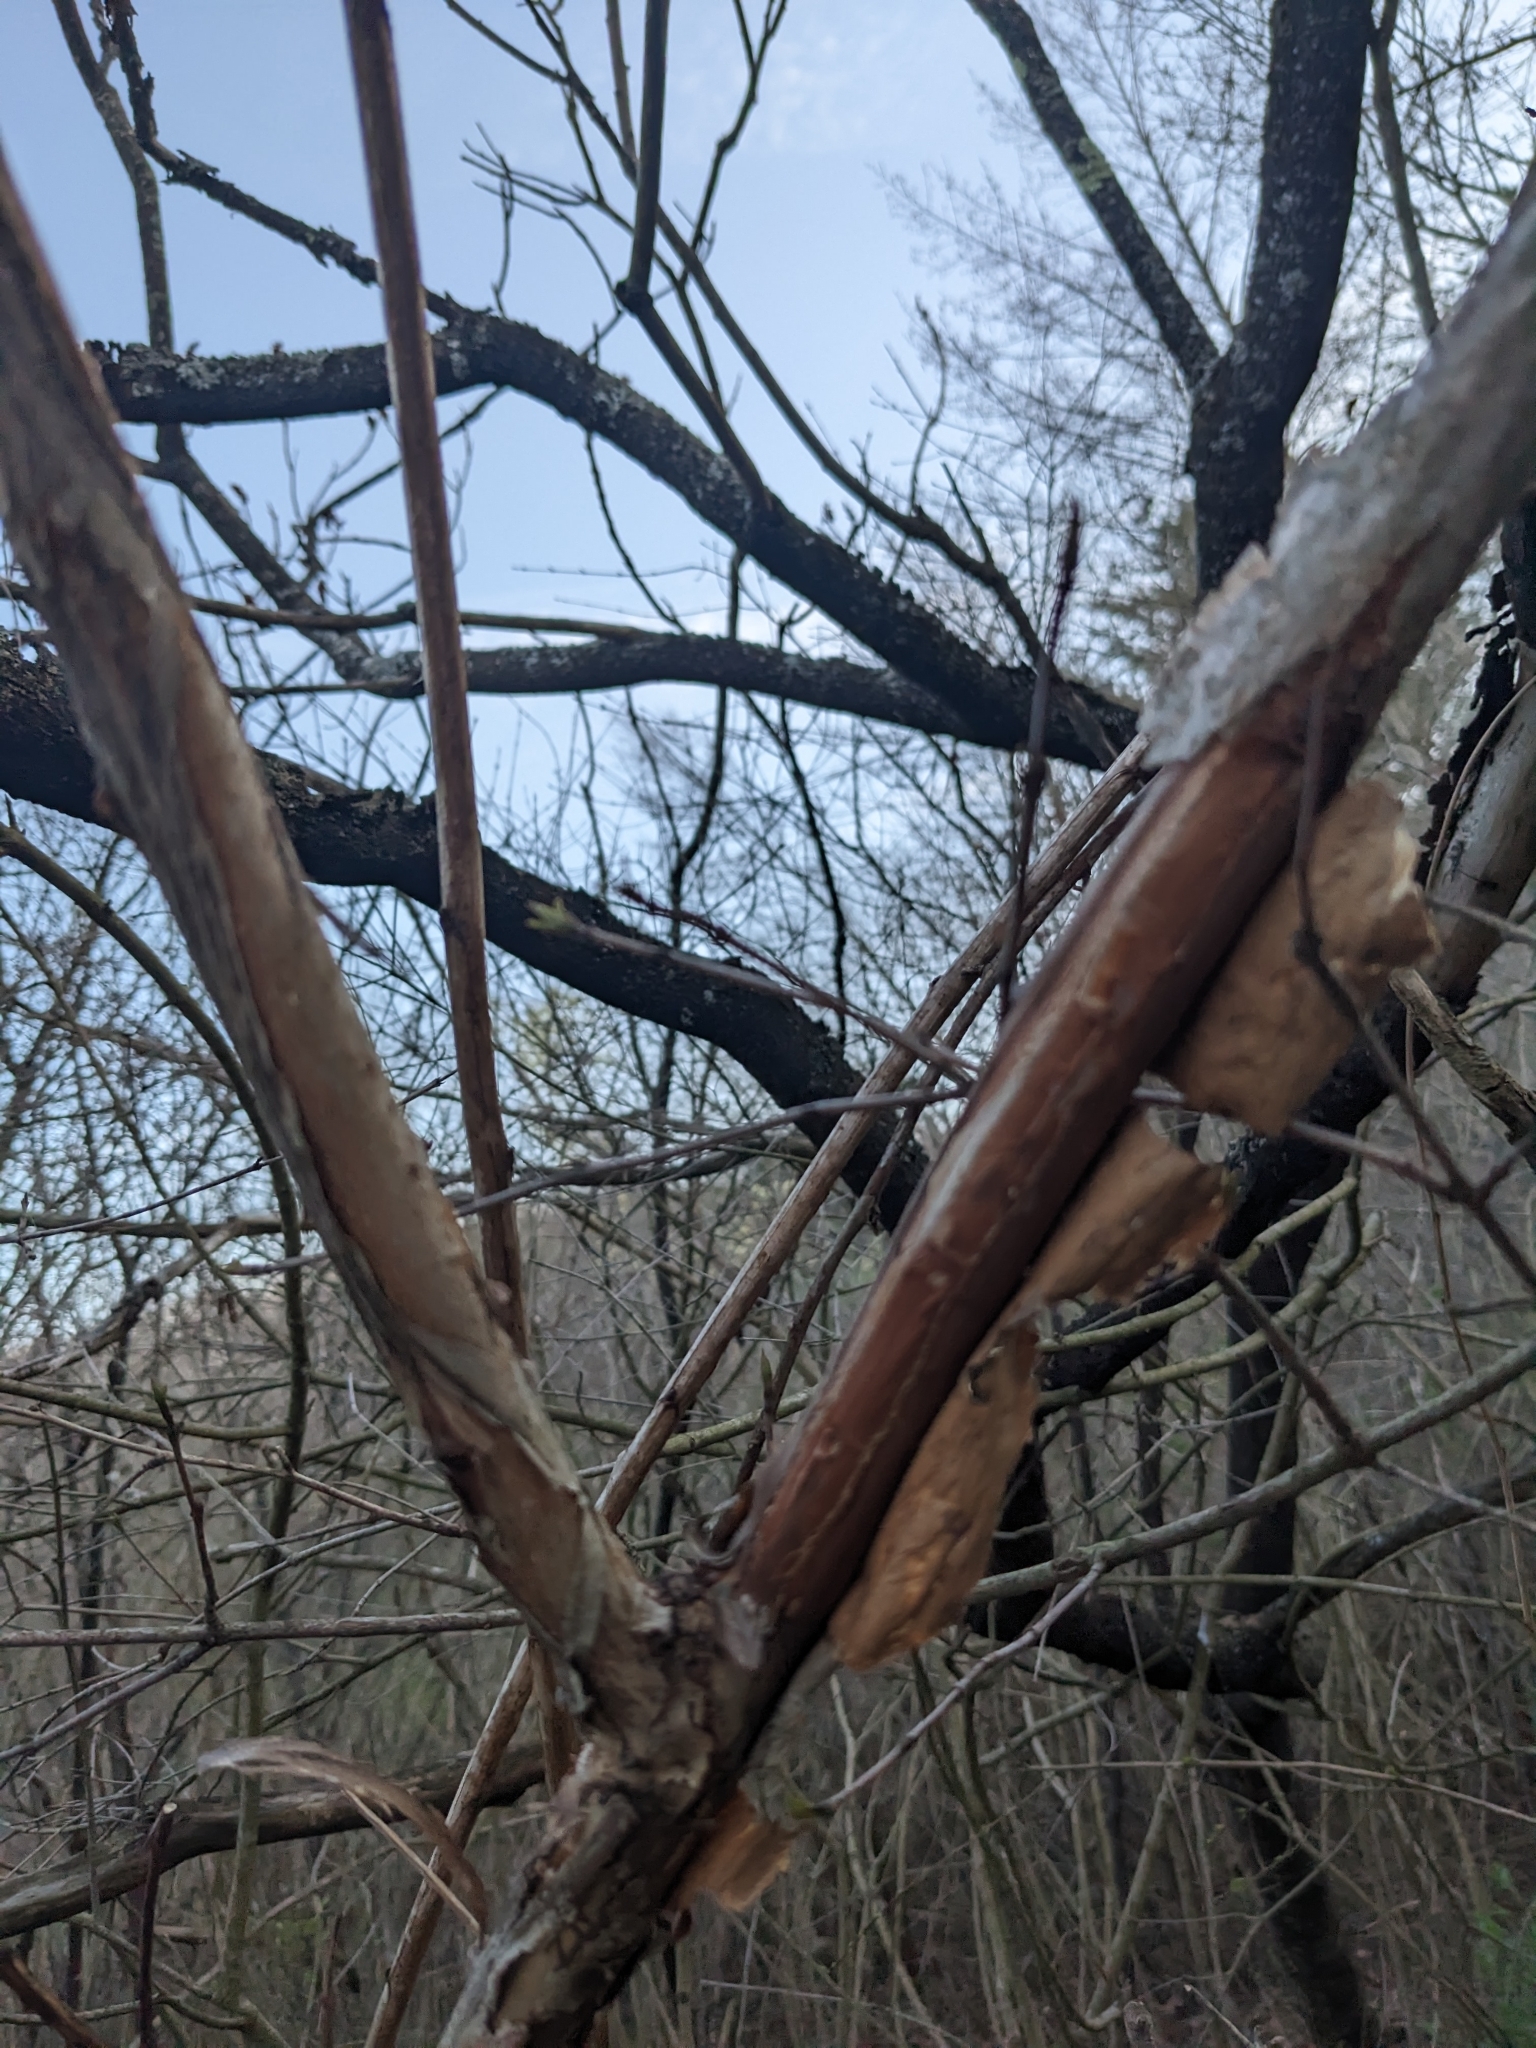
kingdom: Plantae
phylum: Tracheophyta
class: Magnoliopsida
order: Rosales
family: Rosaceae
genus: Physocarpus
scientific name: Physocarpus opulifolius
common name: Ninebark
